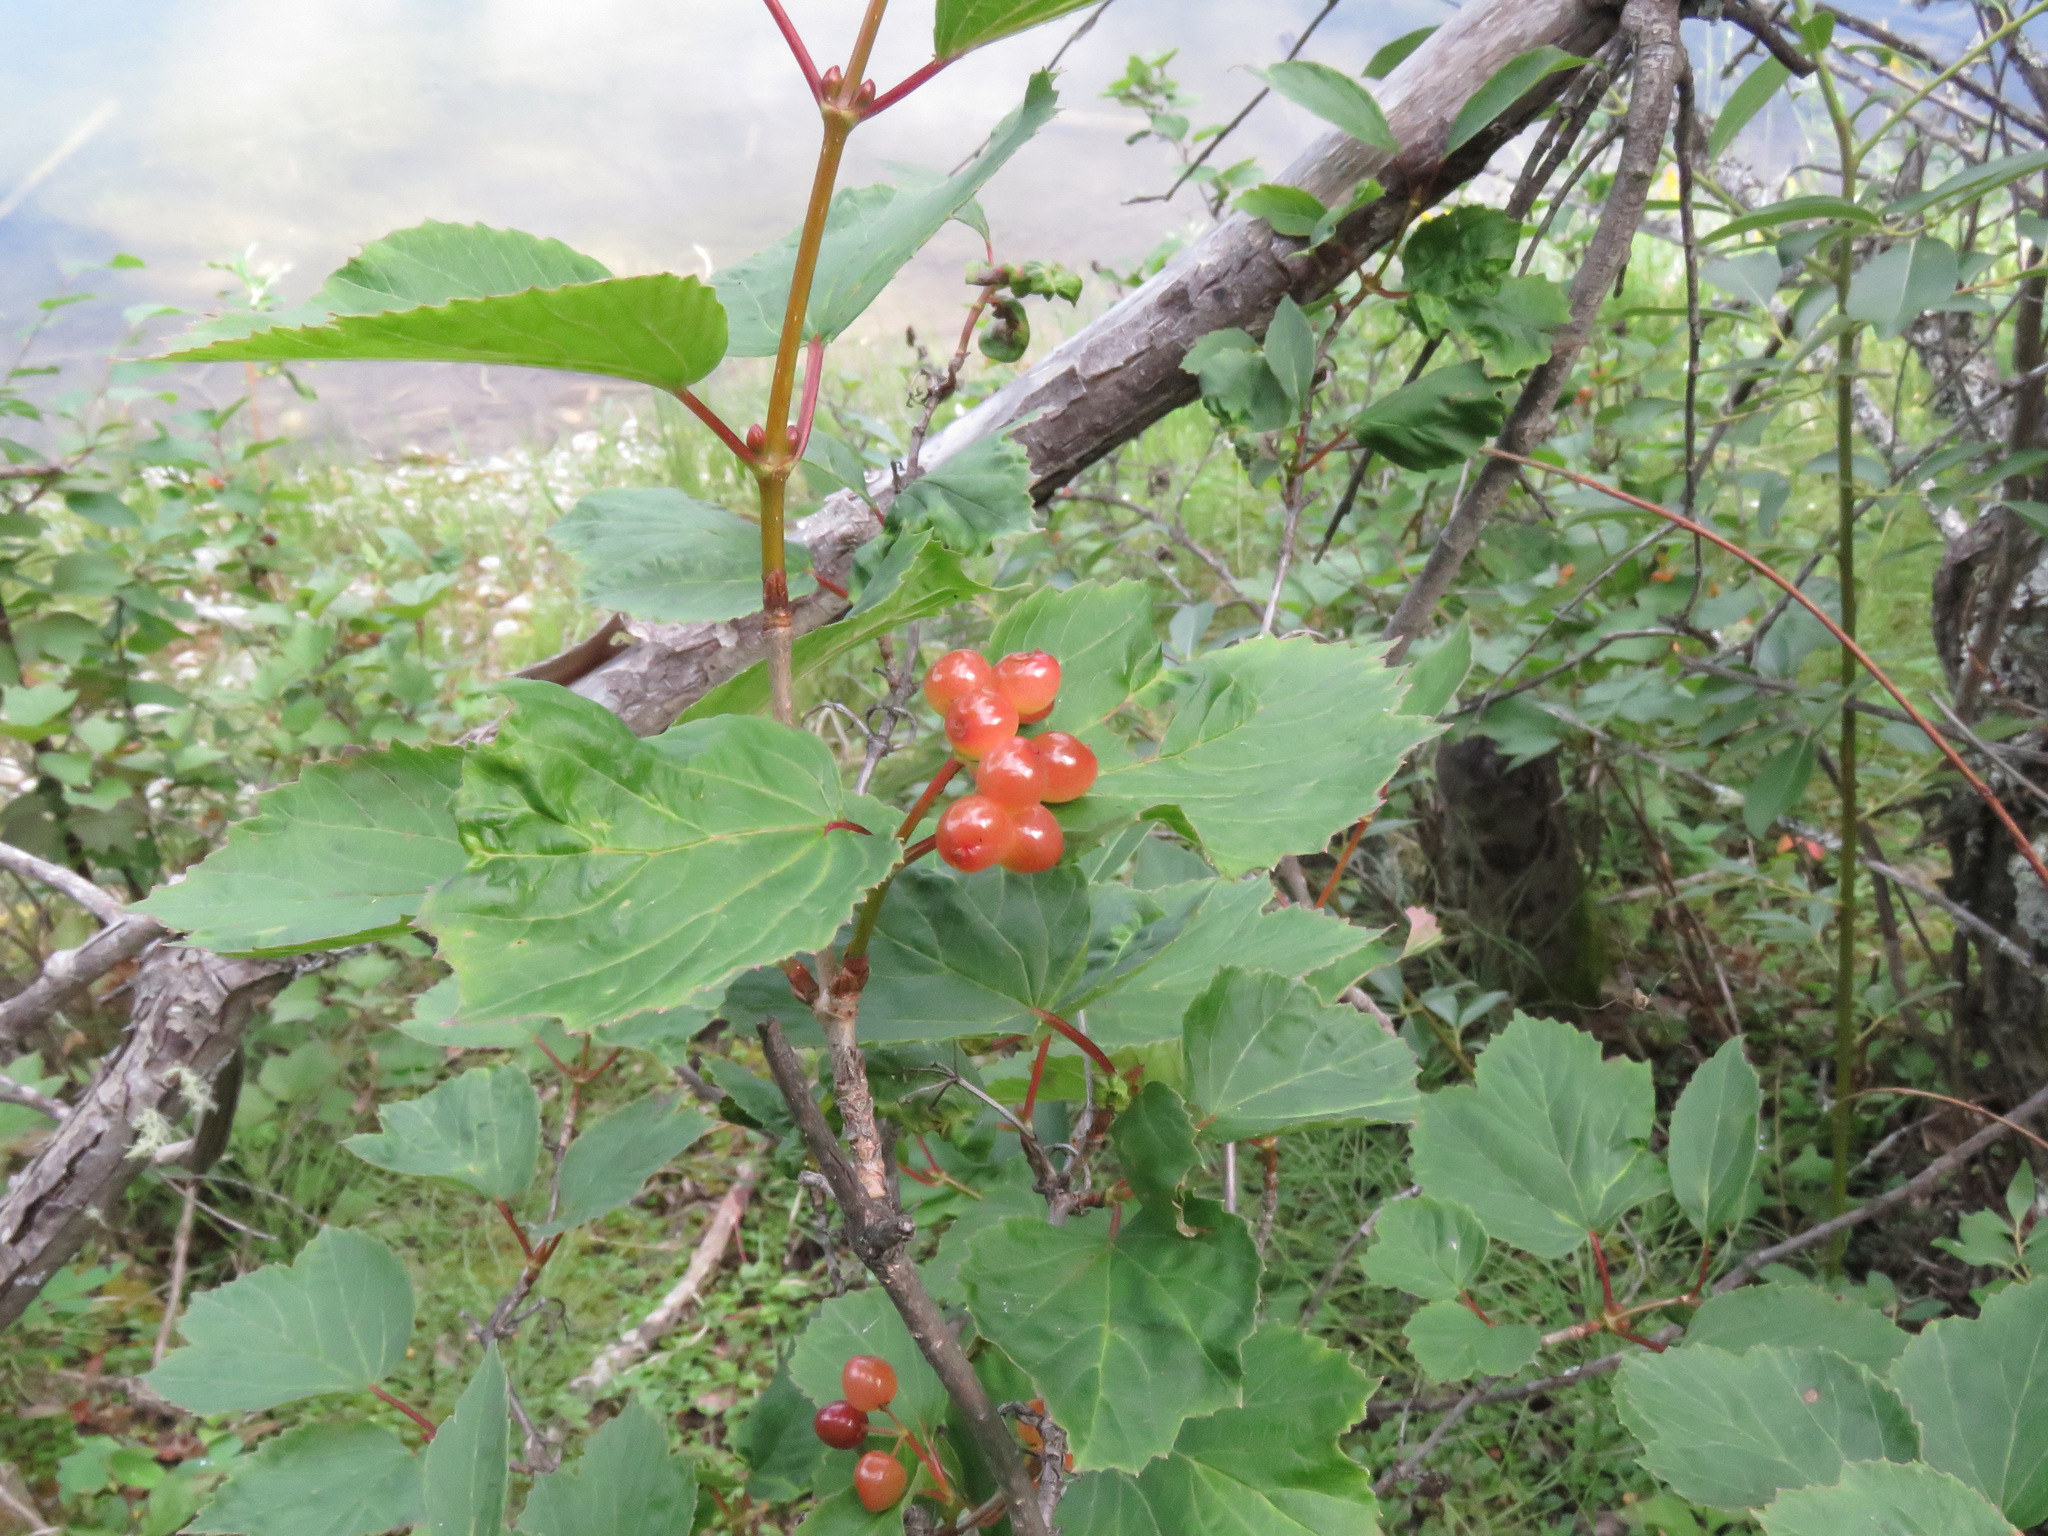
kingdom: Plantae
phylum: Tracheophyta
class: Magnoliopsida
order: Dipsacales
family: Viburnaceae
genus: Viburnum
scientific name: Viburnum edule
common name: Mooseberry
